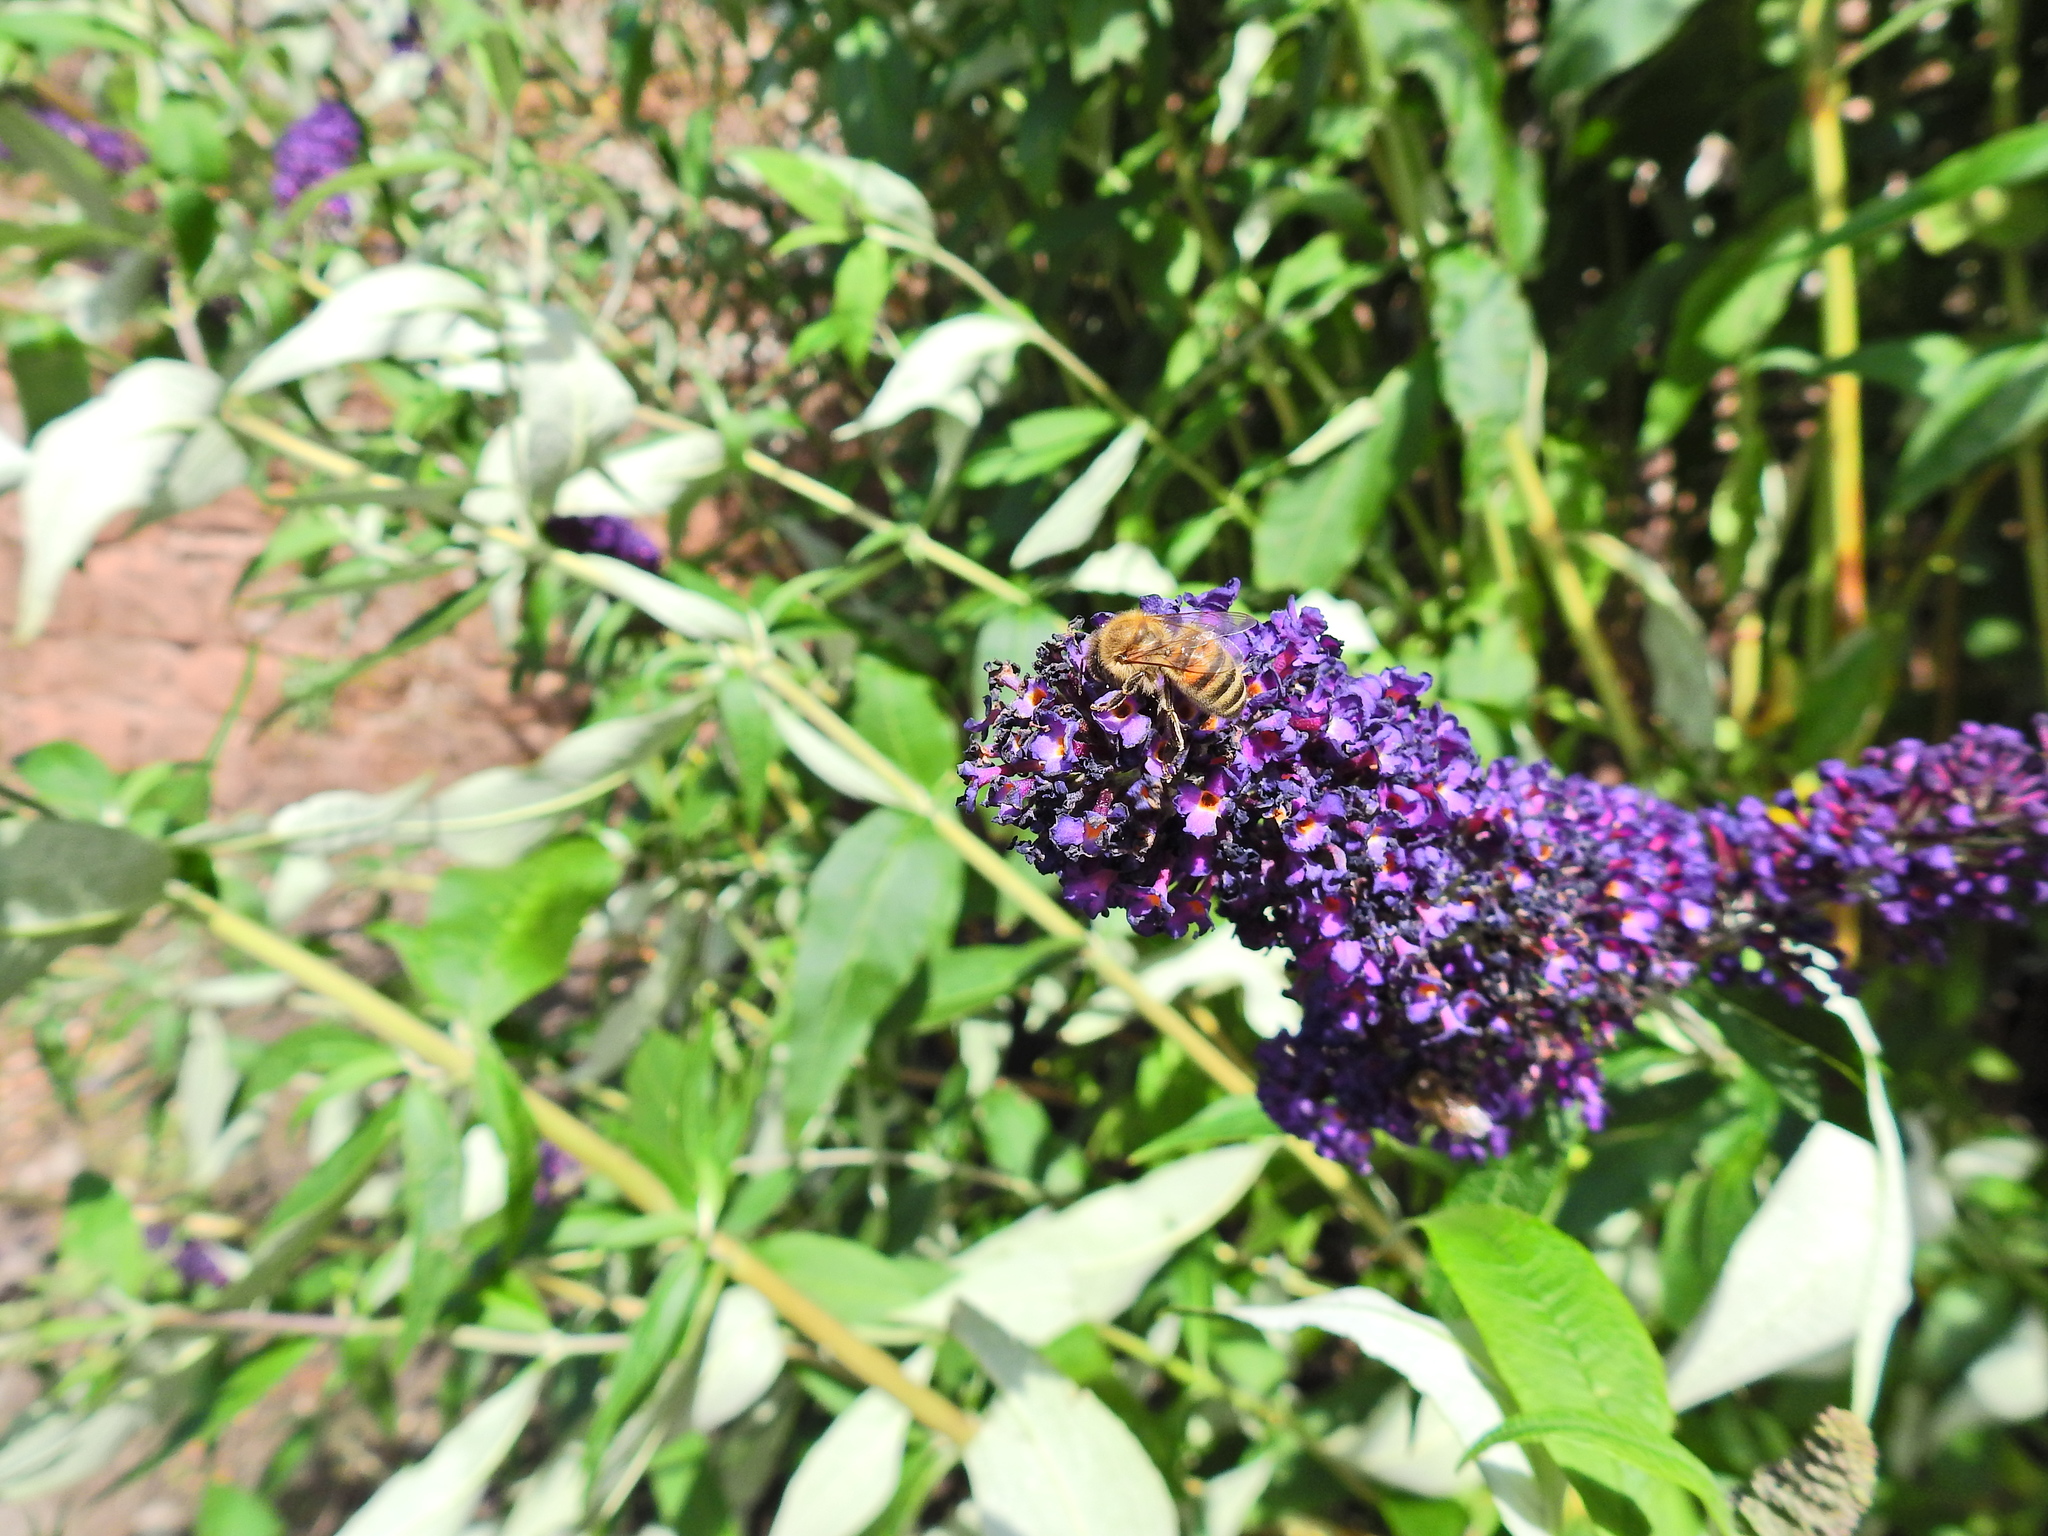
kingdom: Animalia
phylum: Arthropoda
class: Insecta
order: Hymenoptera
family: Apidae
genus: Apis
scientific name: Apis mellifera
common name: Honey bee
